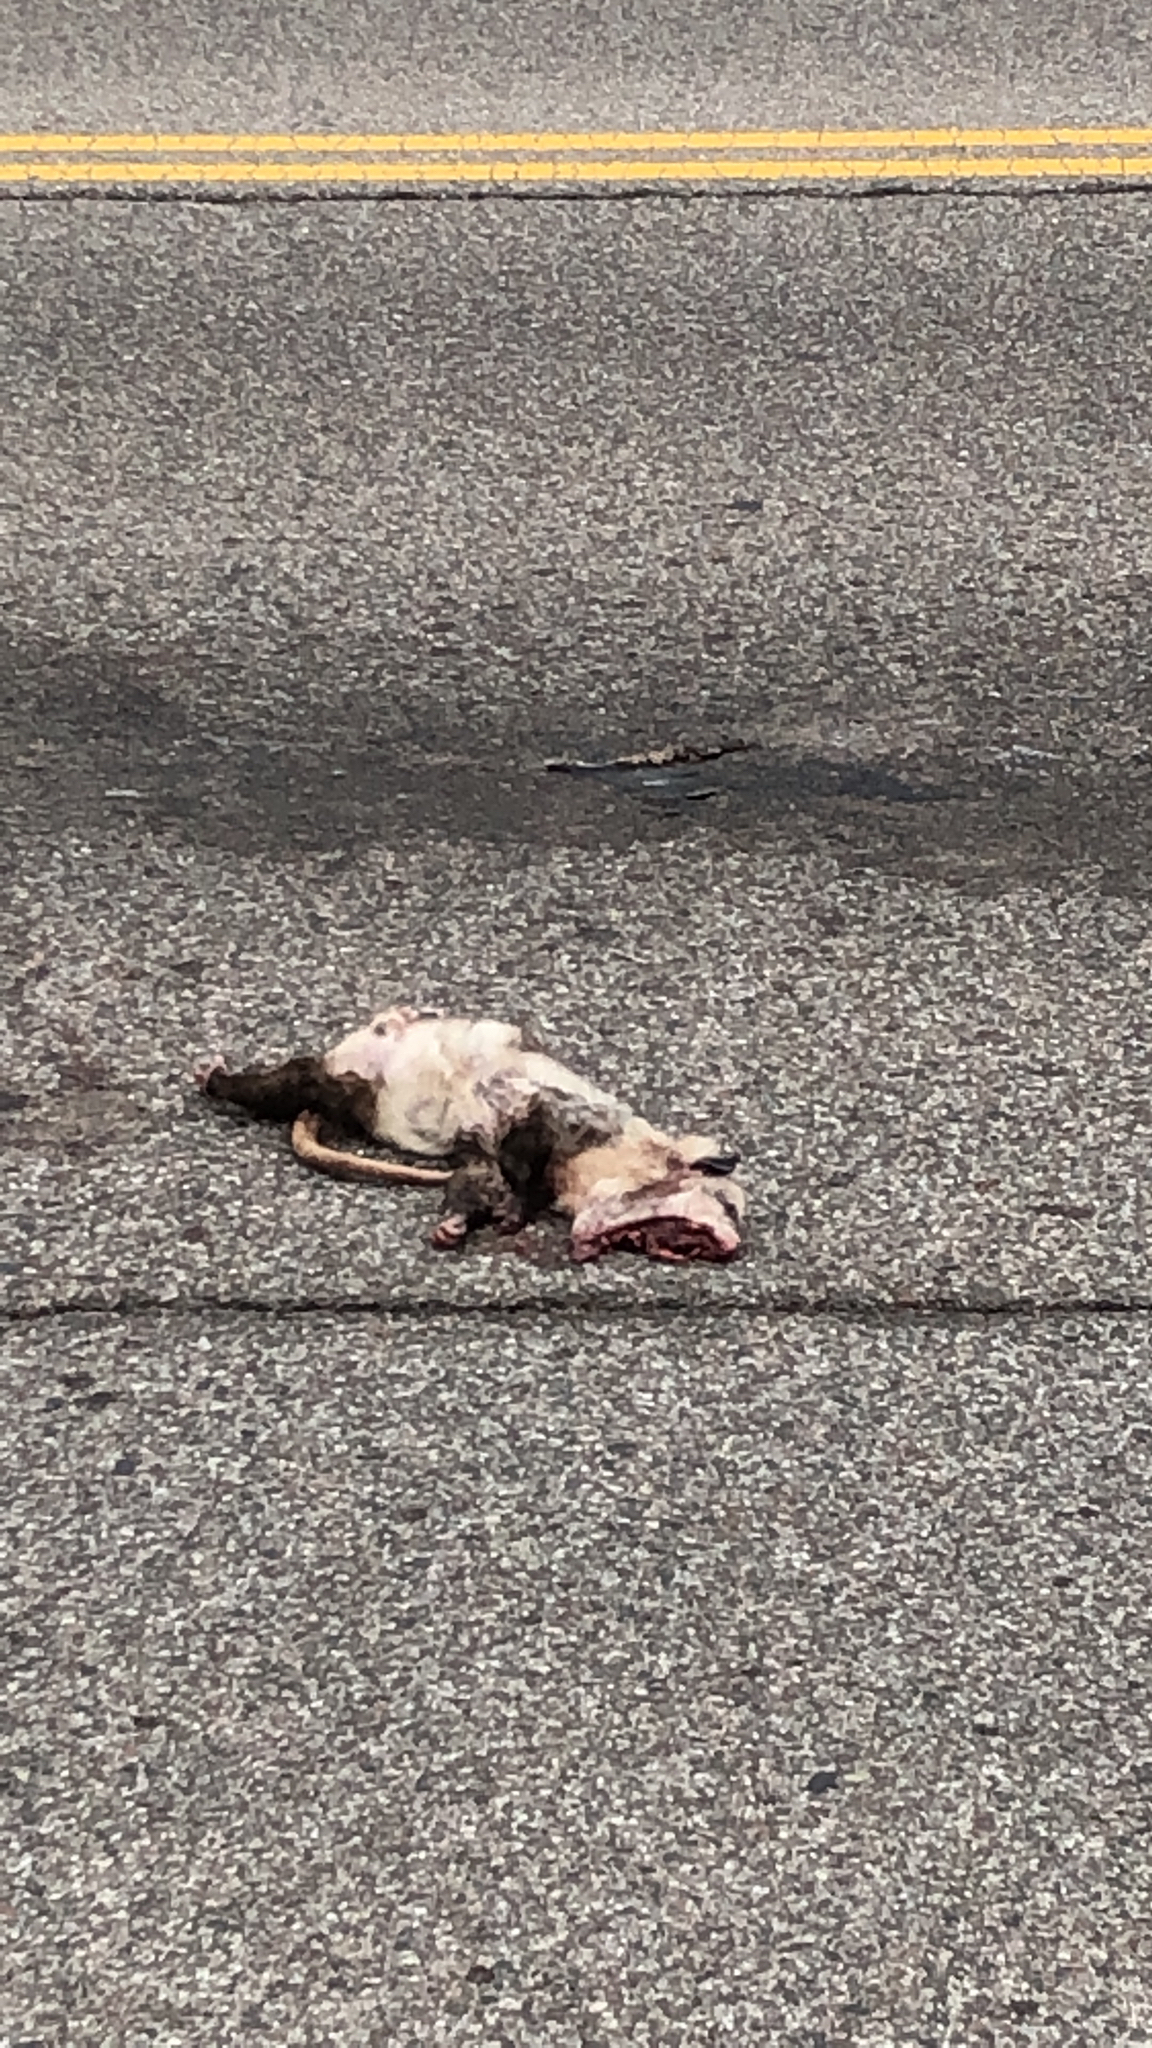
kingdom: Animalia
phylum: Chordata
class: Mammalia
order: Didelphimorphia
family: Didelphidae
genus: Didelphis
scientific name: Didelphis virginiana
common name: Virginia opossum
